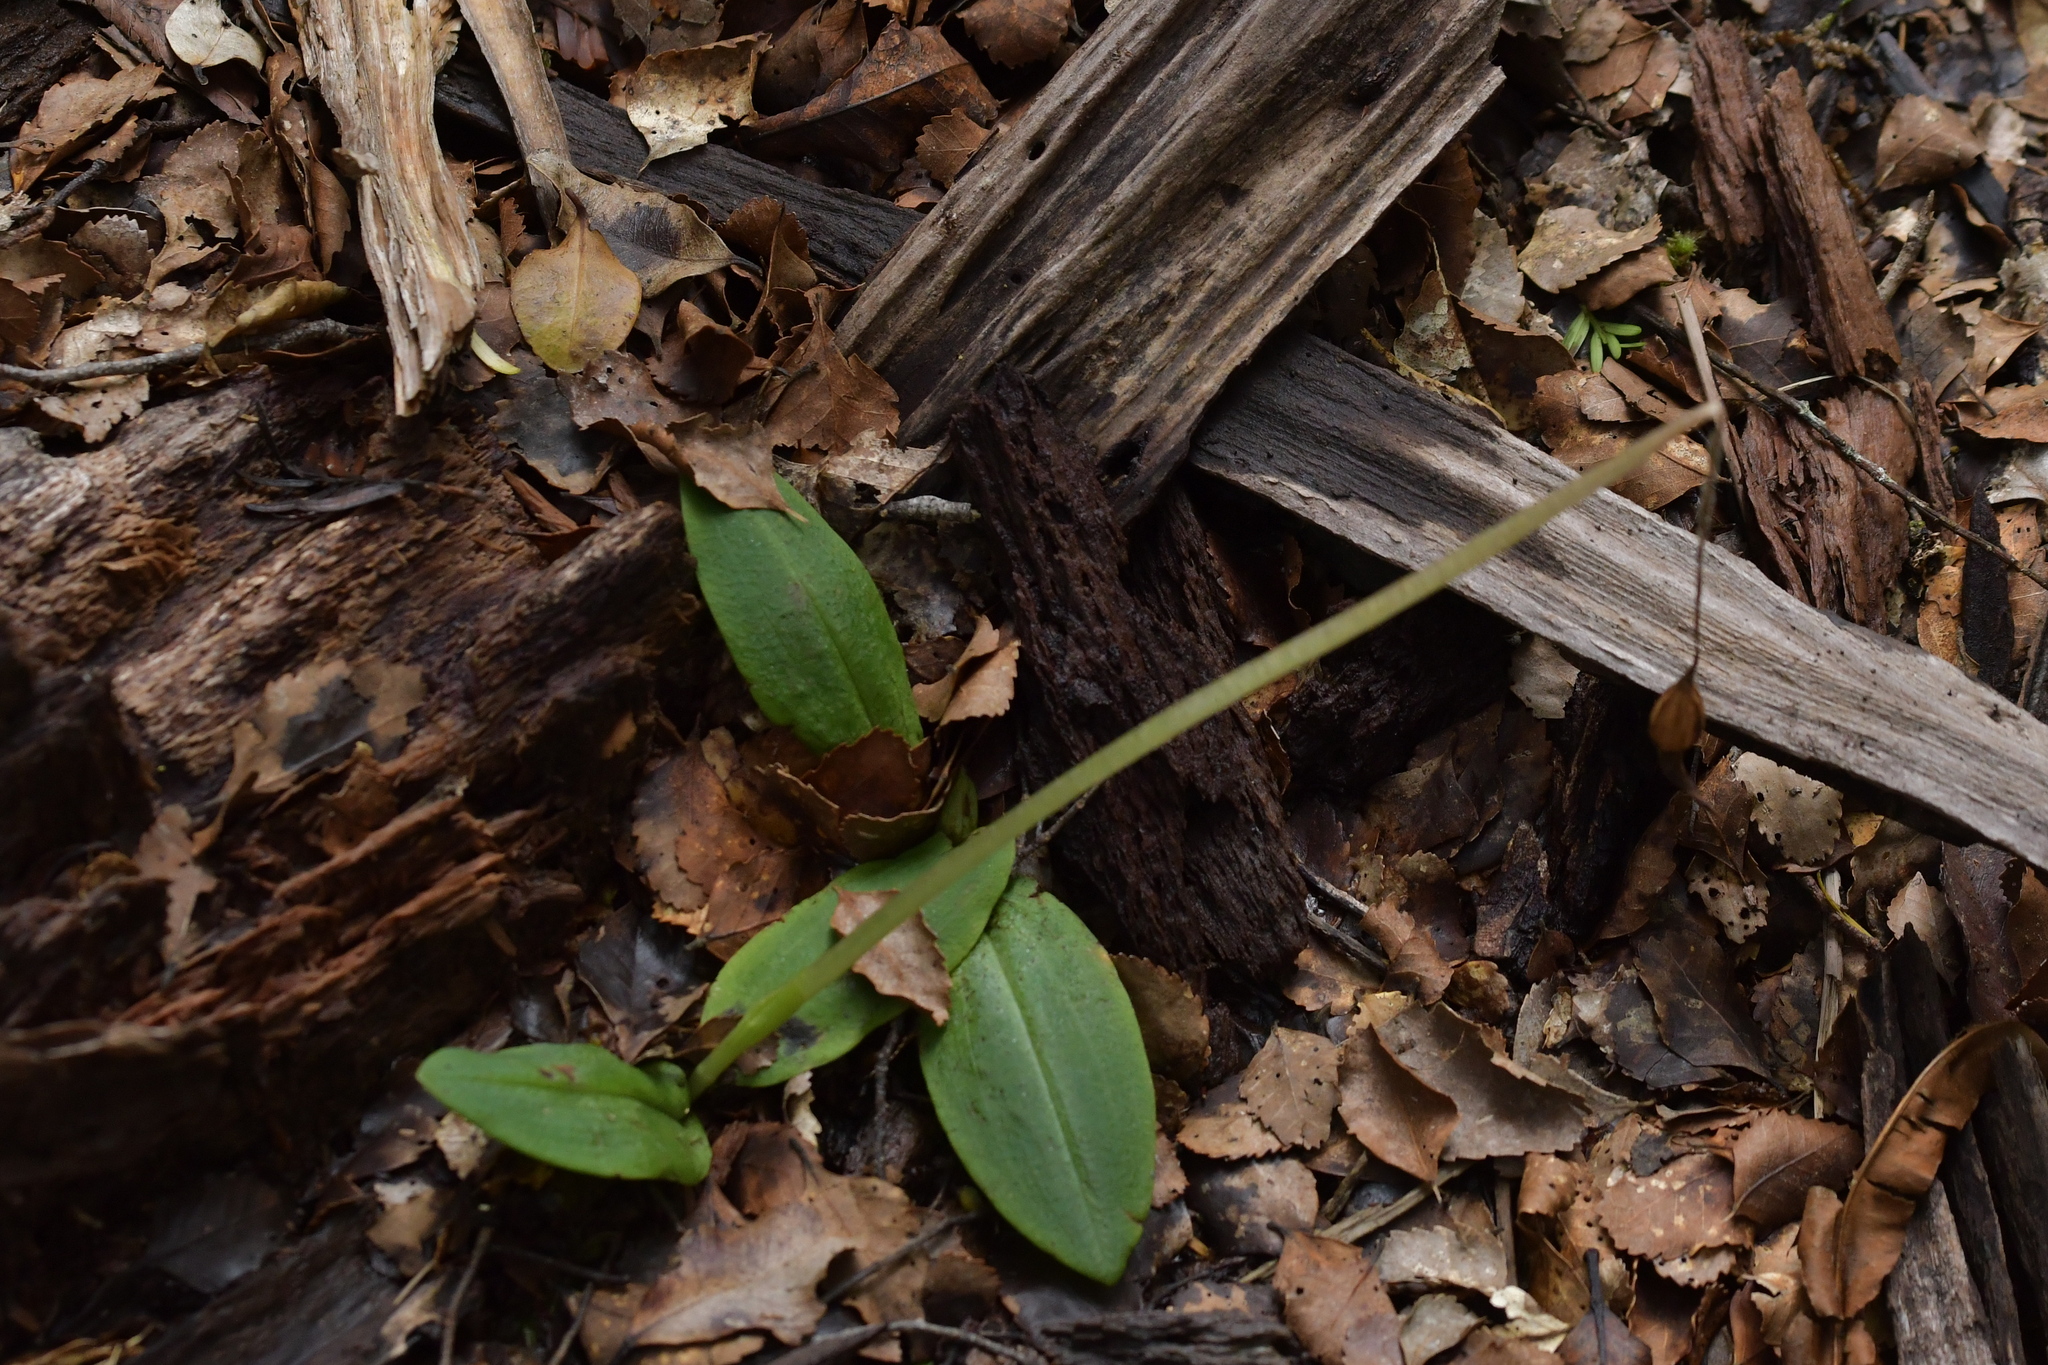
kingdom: Plantae
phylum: Tracheophyta
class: Liliopsida
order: Asparagales
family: Orchidaceae
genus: Chiloglottis
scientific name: Chiloglottis cornuta
